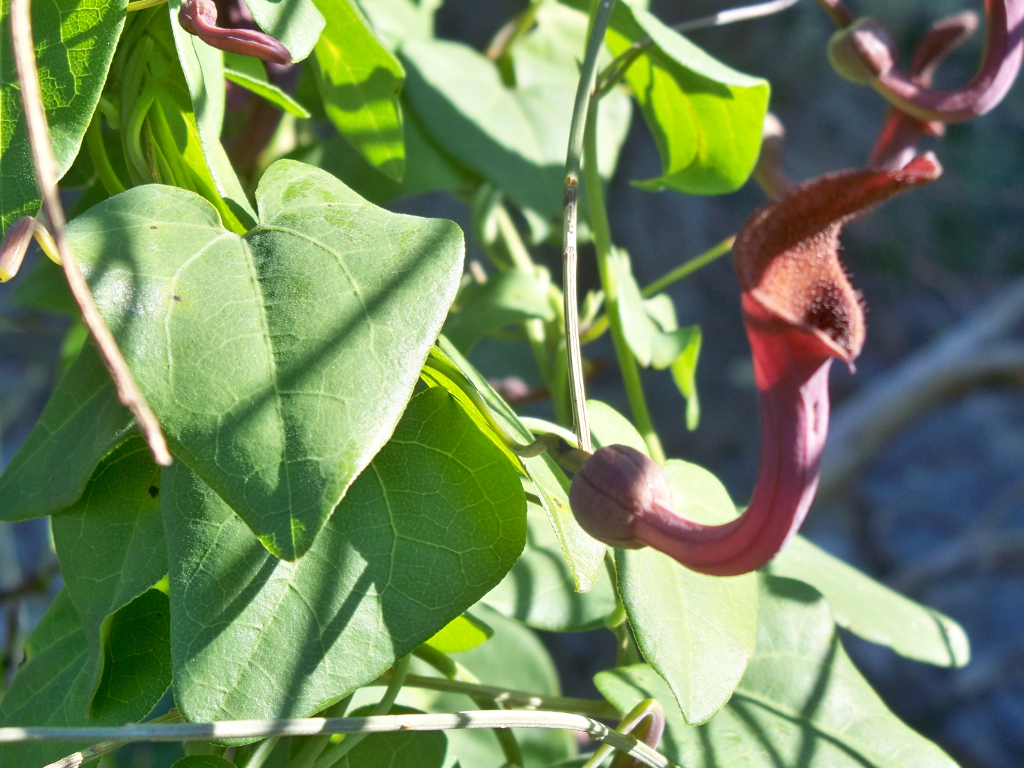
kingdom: Plantae
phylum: Tracheophyta
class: Magnoliopsida
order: Piperales
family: Aristolochiaceae
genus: Aristolochia
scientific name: Aristolochia baetica
